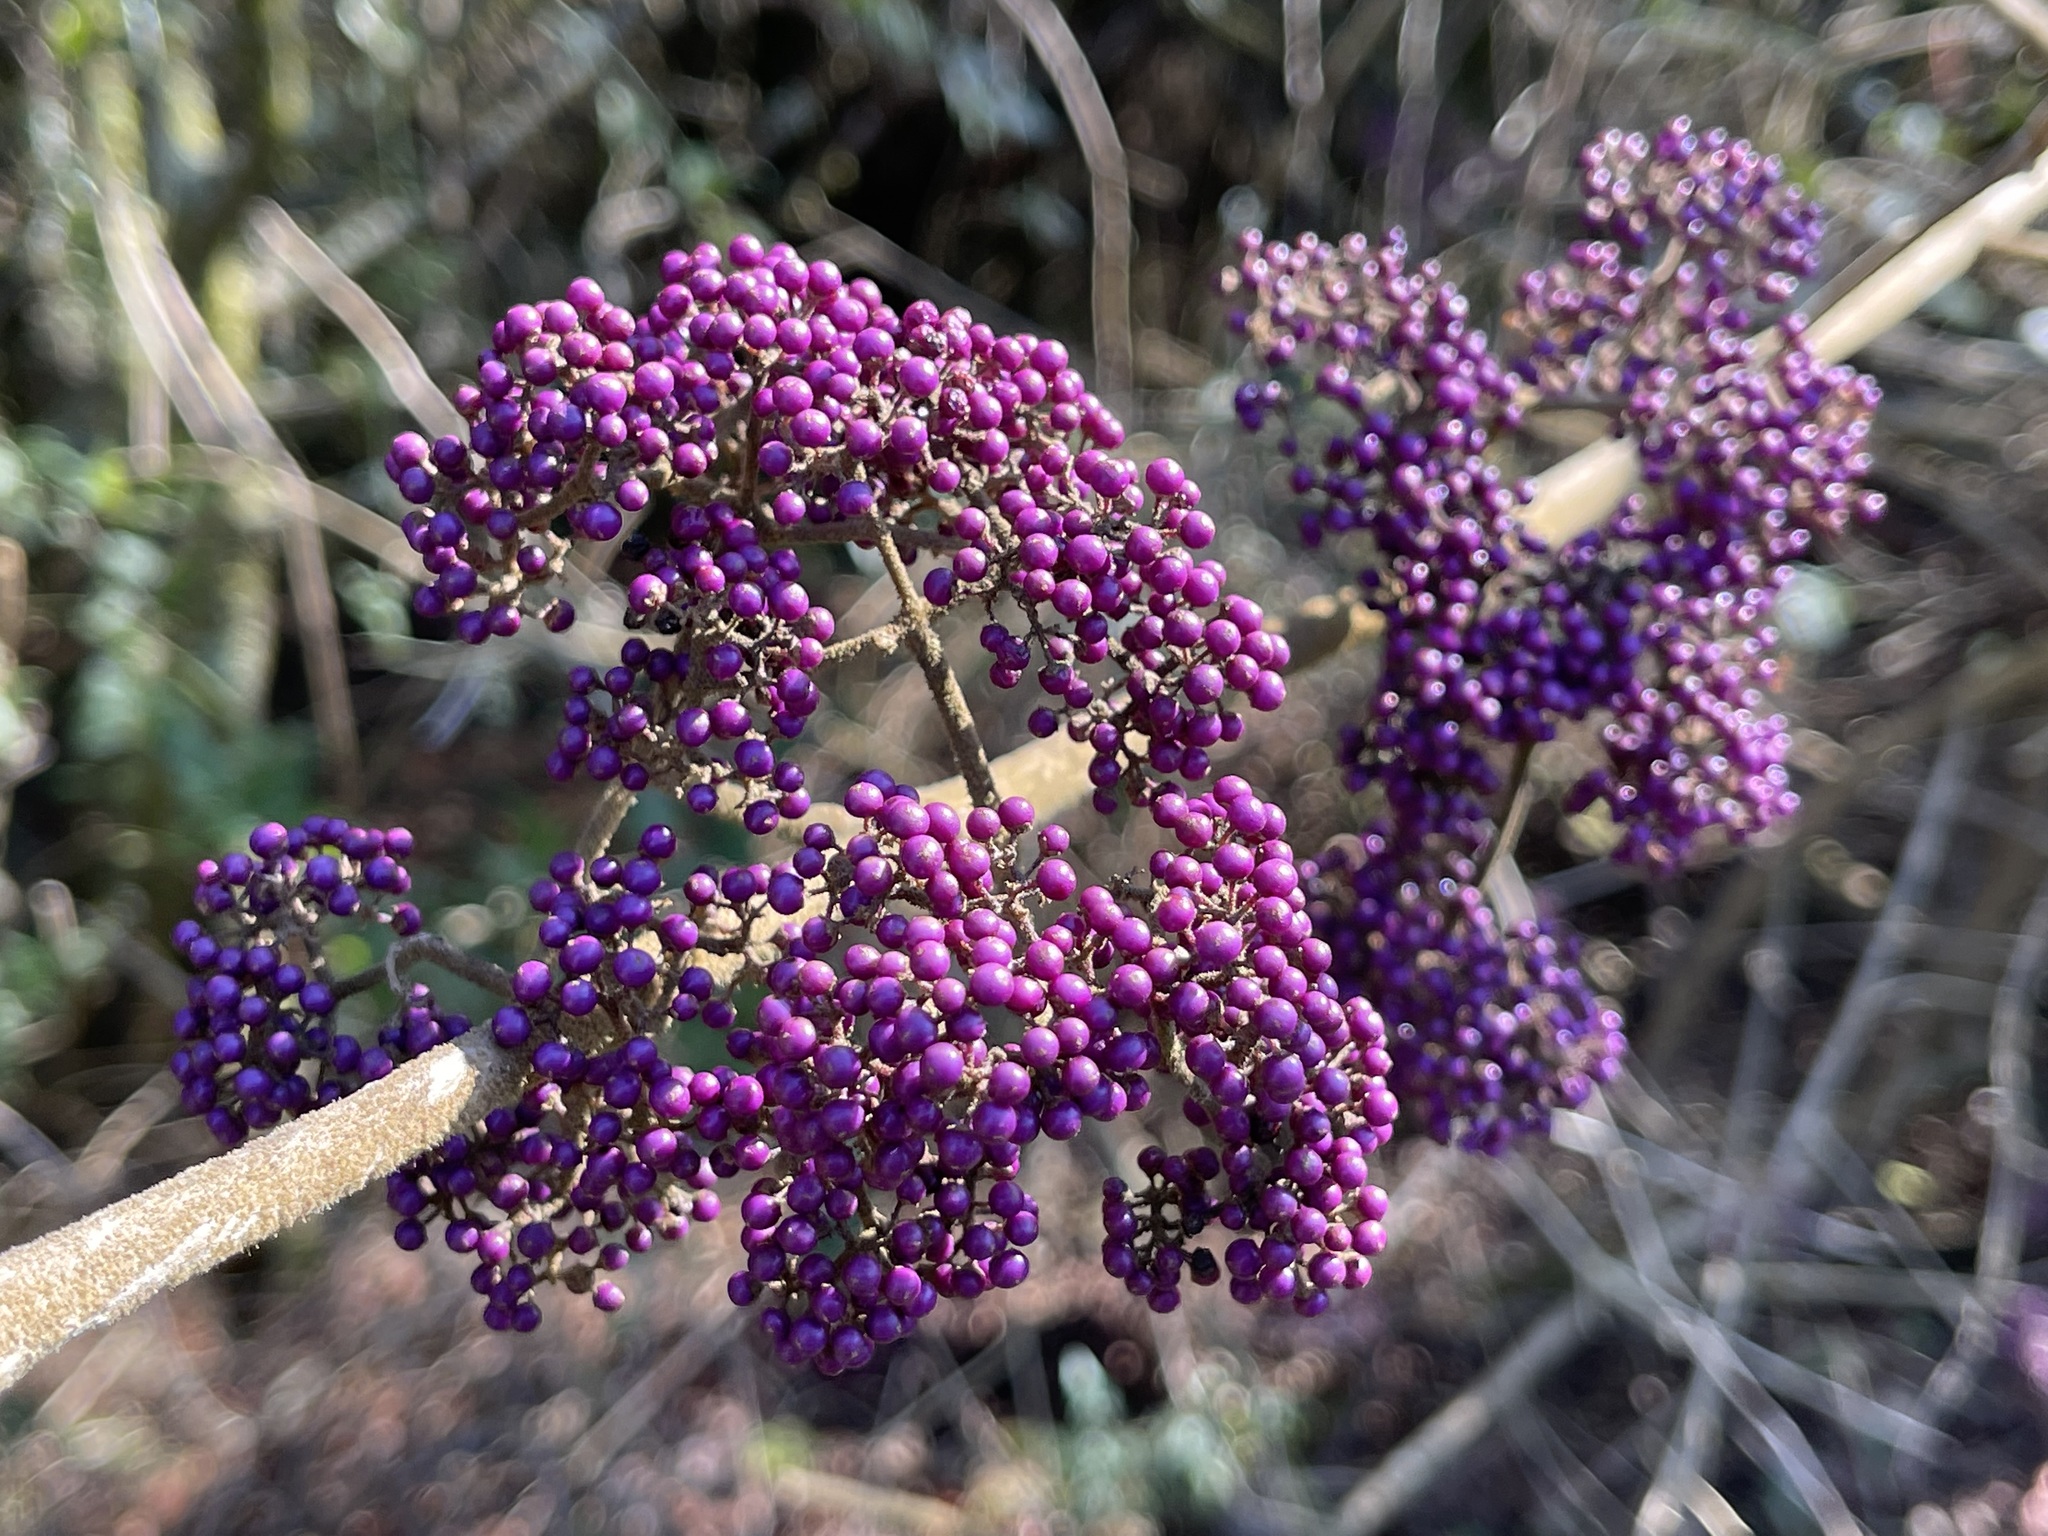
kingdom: Plantae
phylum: Tracheophyta
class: Magnoliopsida
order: Lamiales
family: Lamiaceae
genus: Callicarpa
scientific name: Callicarpa pedunculata
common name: Velvetleaf
